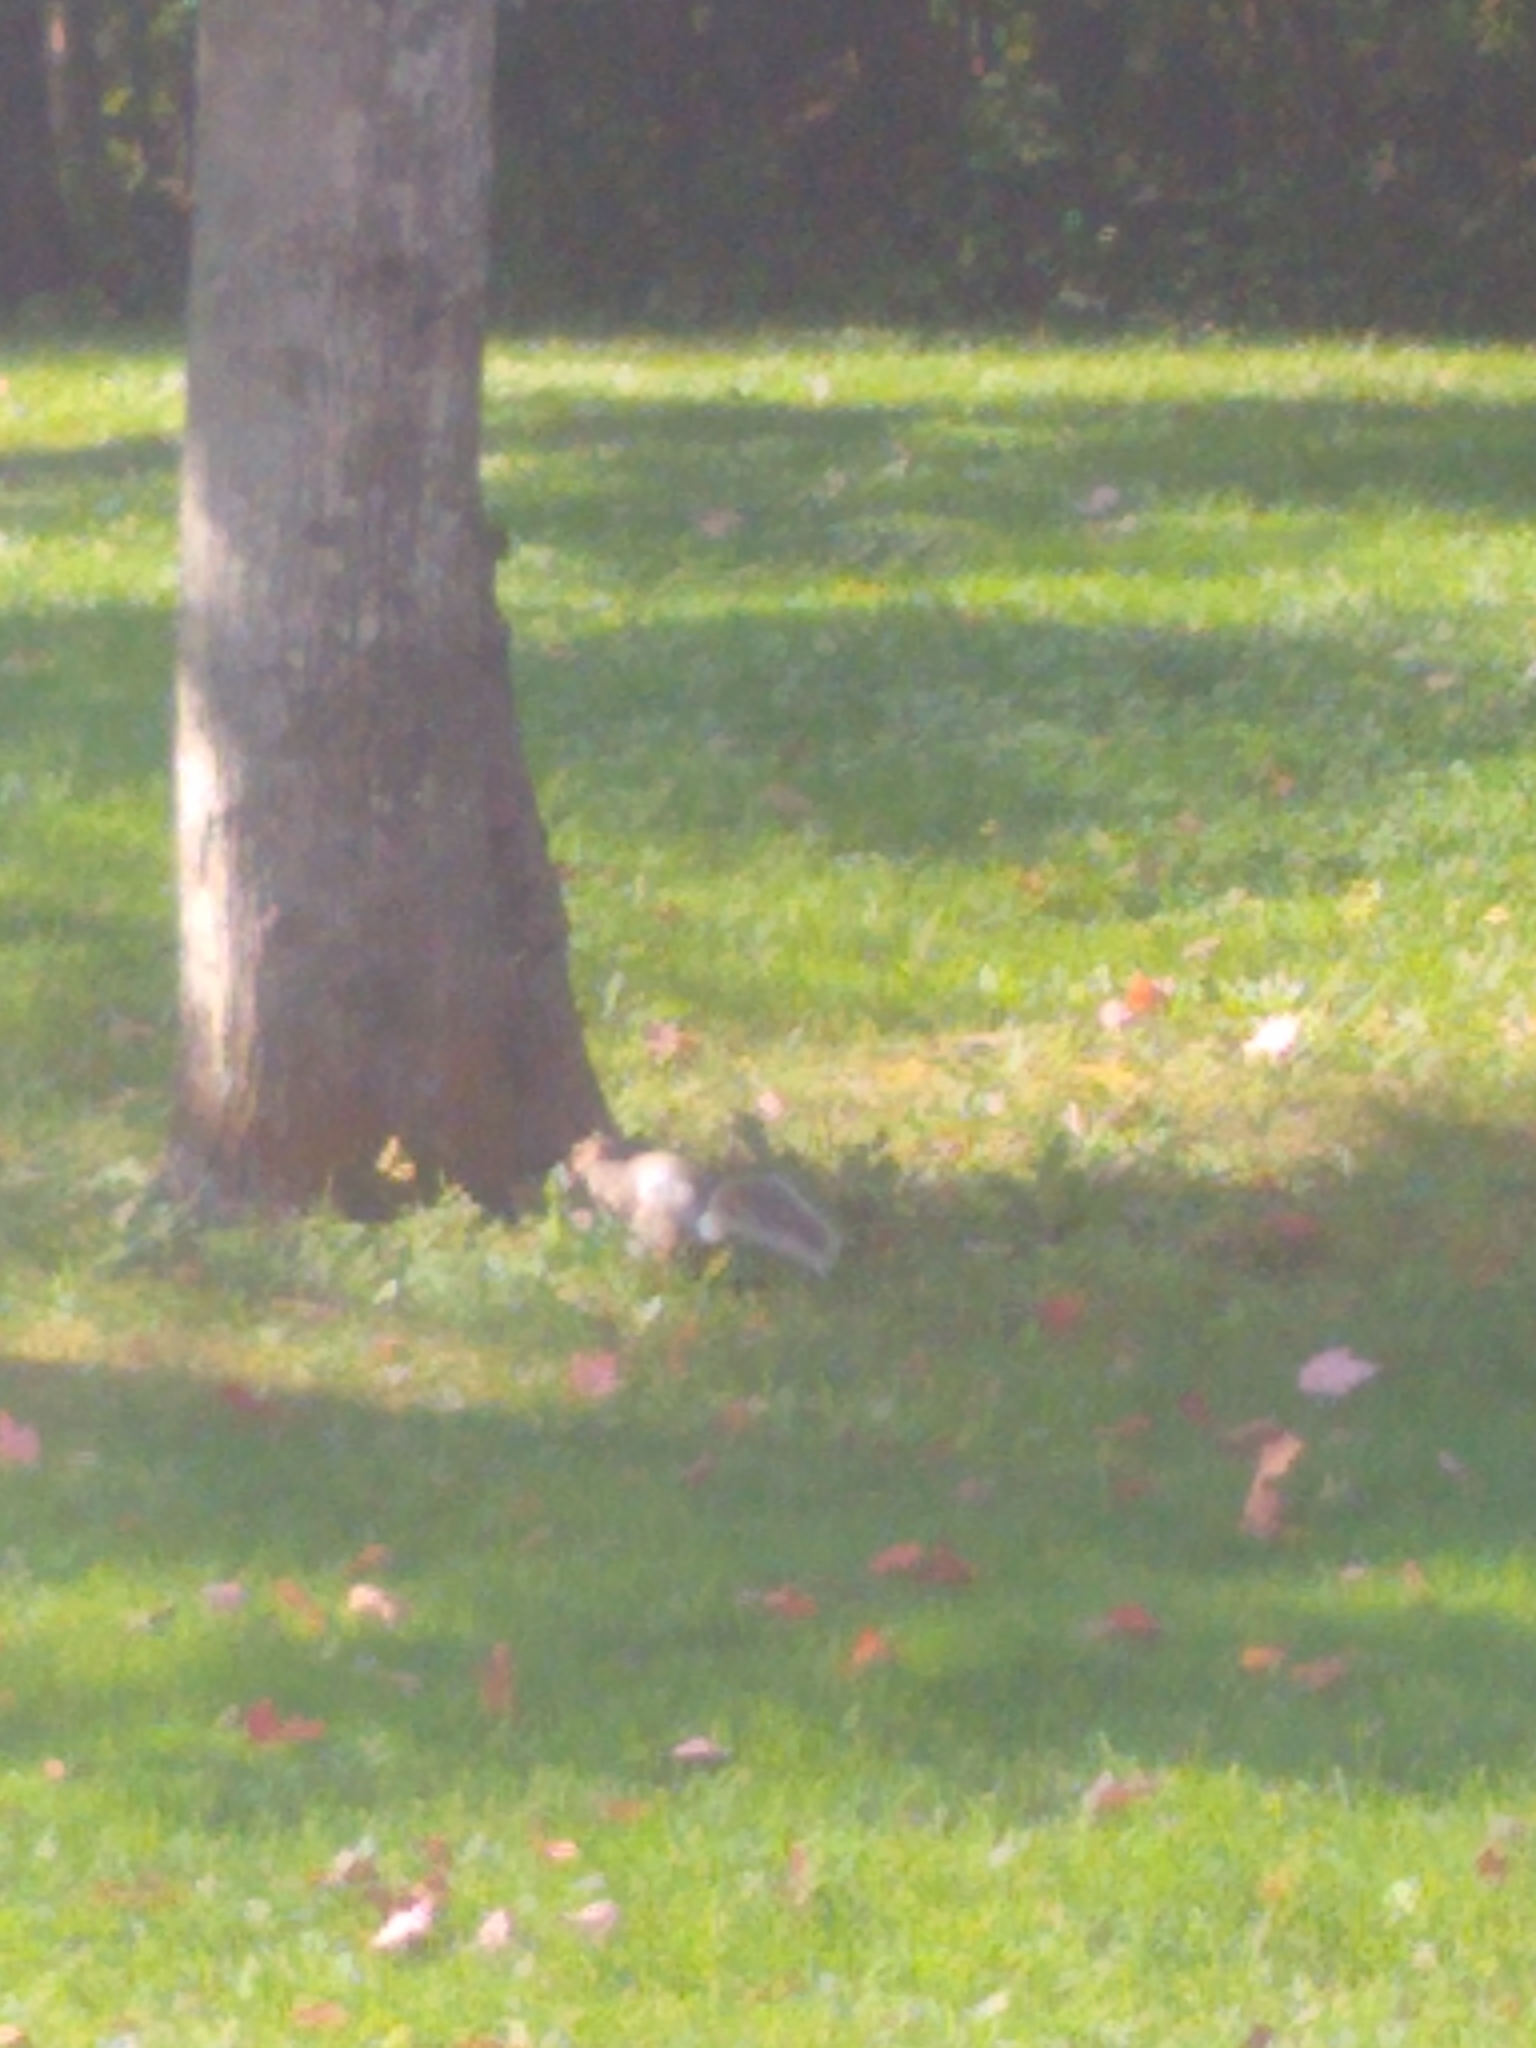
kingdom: Animalia
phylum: Chordata
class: Mammalia
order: Rodentia
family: Sciuridae
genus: Sciurus
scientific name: Sciurus carolinensis
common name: Eastern gray squirrel
